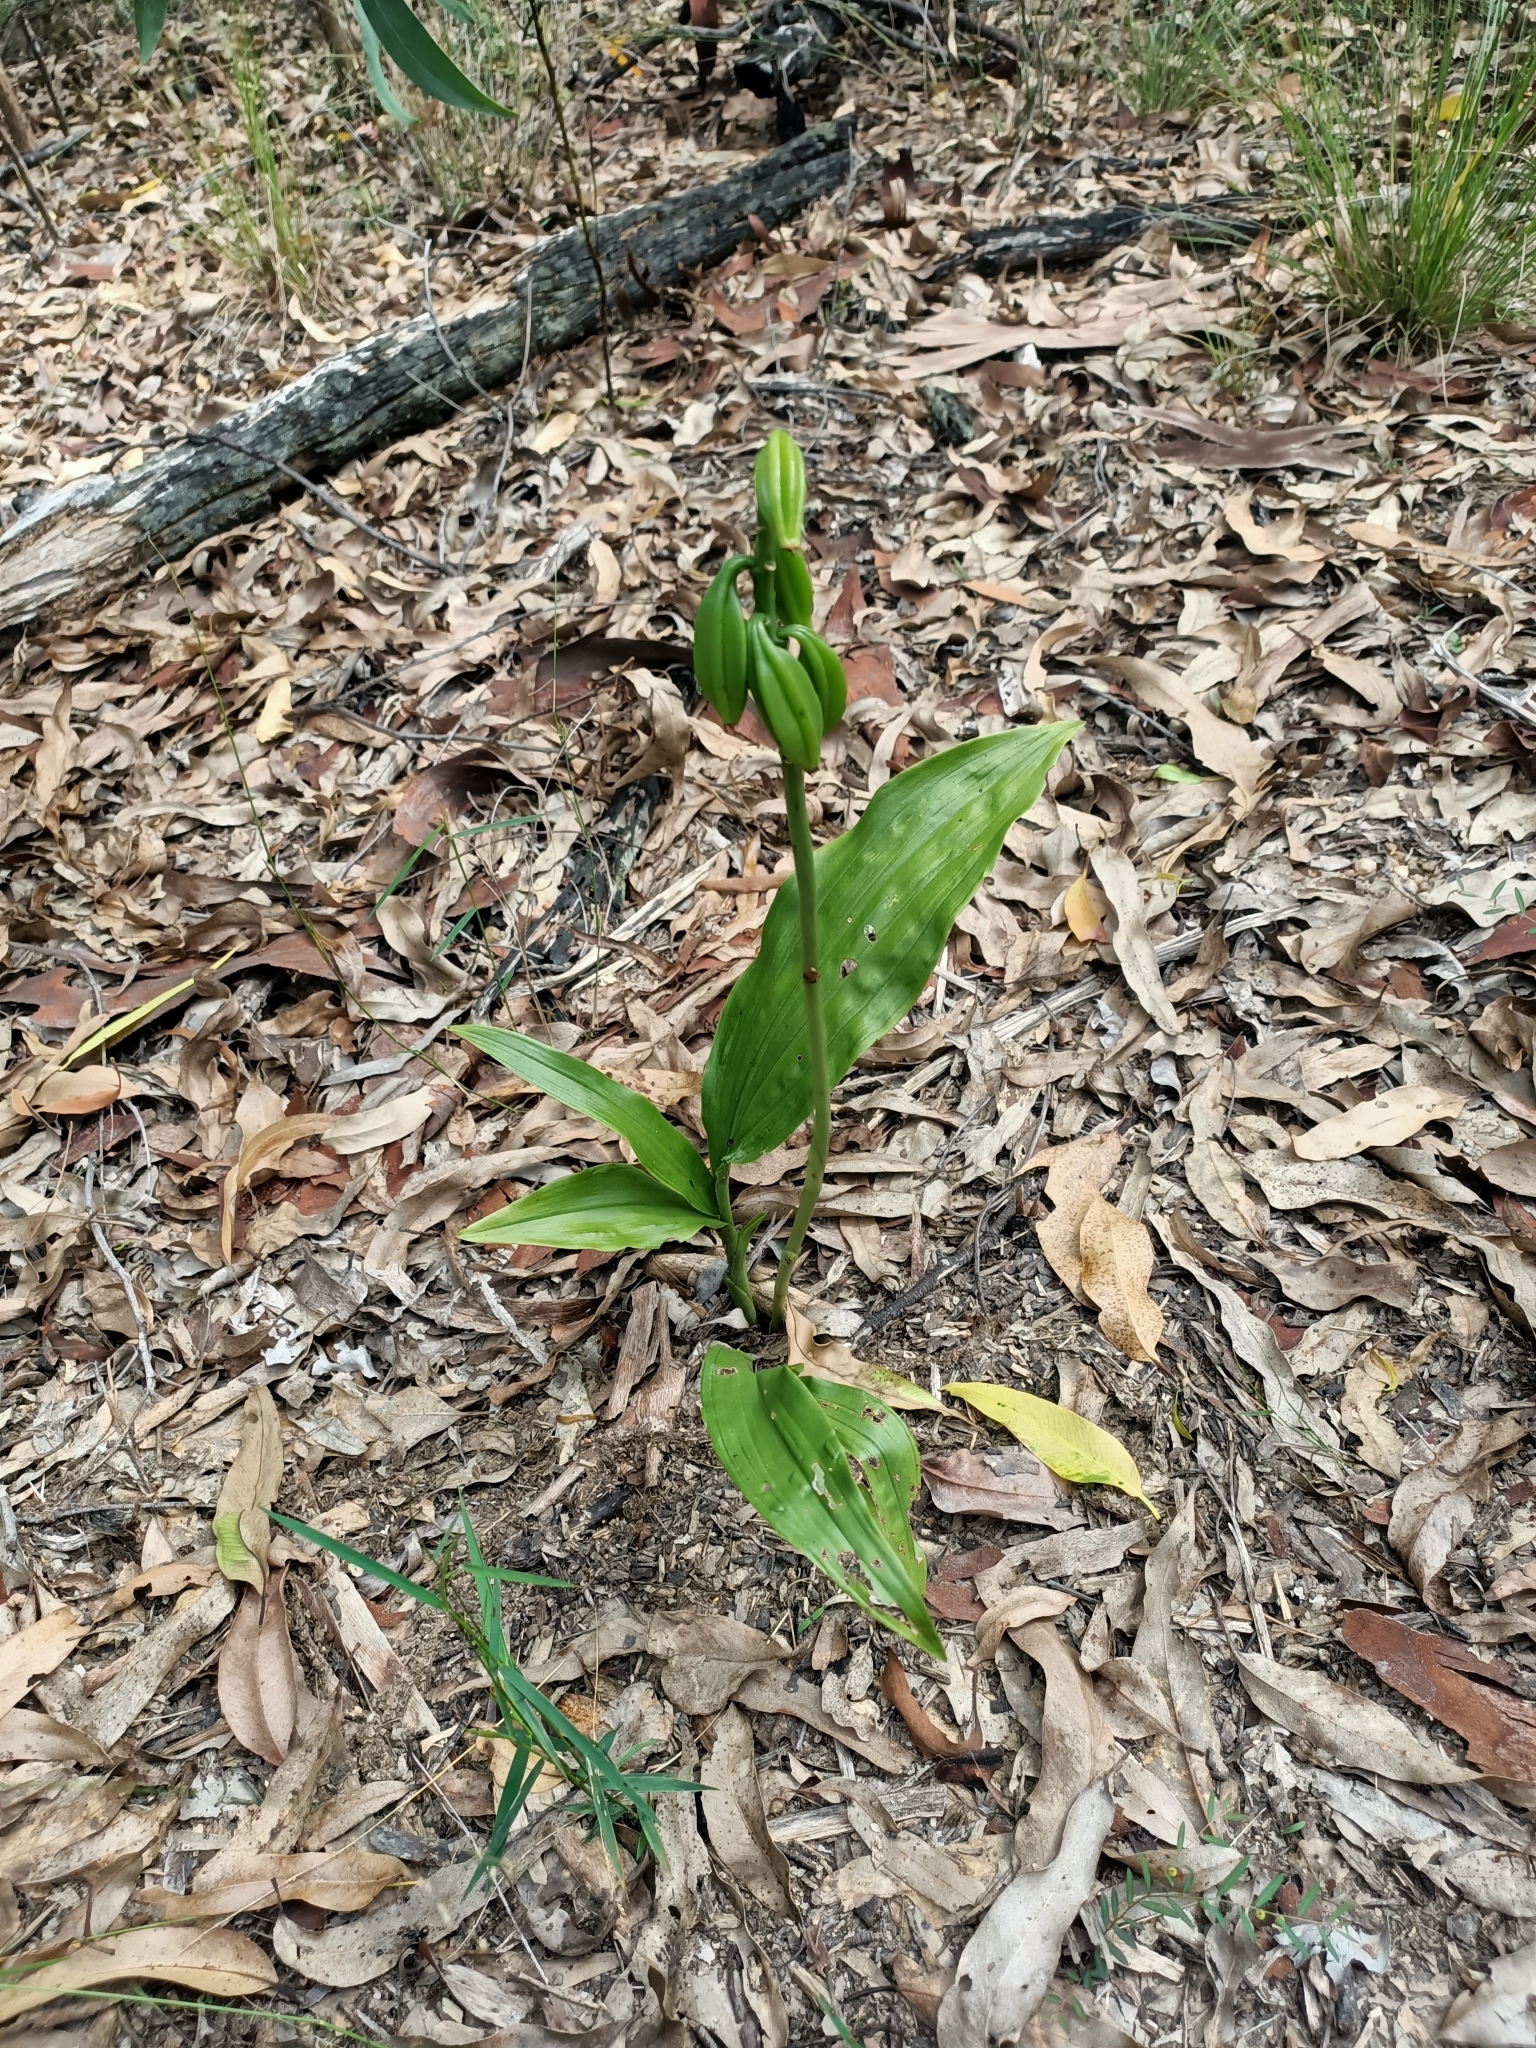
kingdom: Plantae
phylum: Tracheophyta
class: Liliopsida
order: Asparagales
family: Orchidaceae
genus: Eulophia
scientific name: Eulophia cernua
